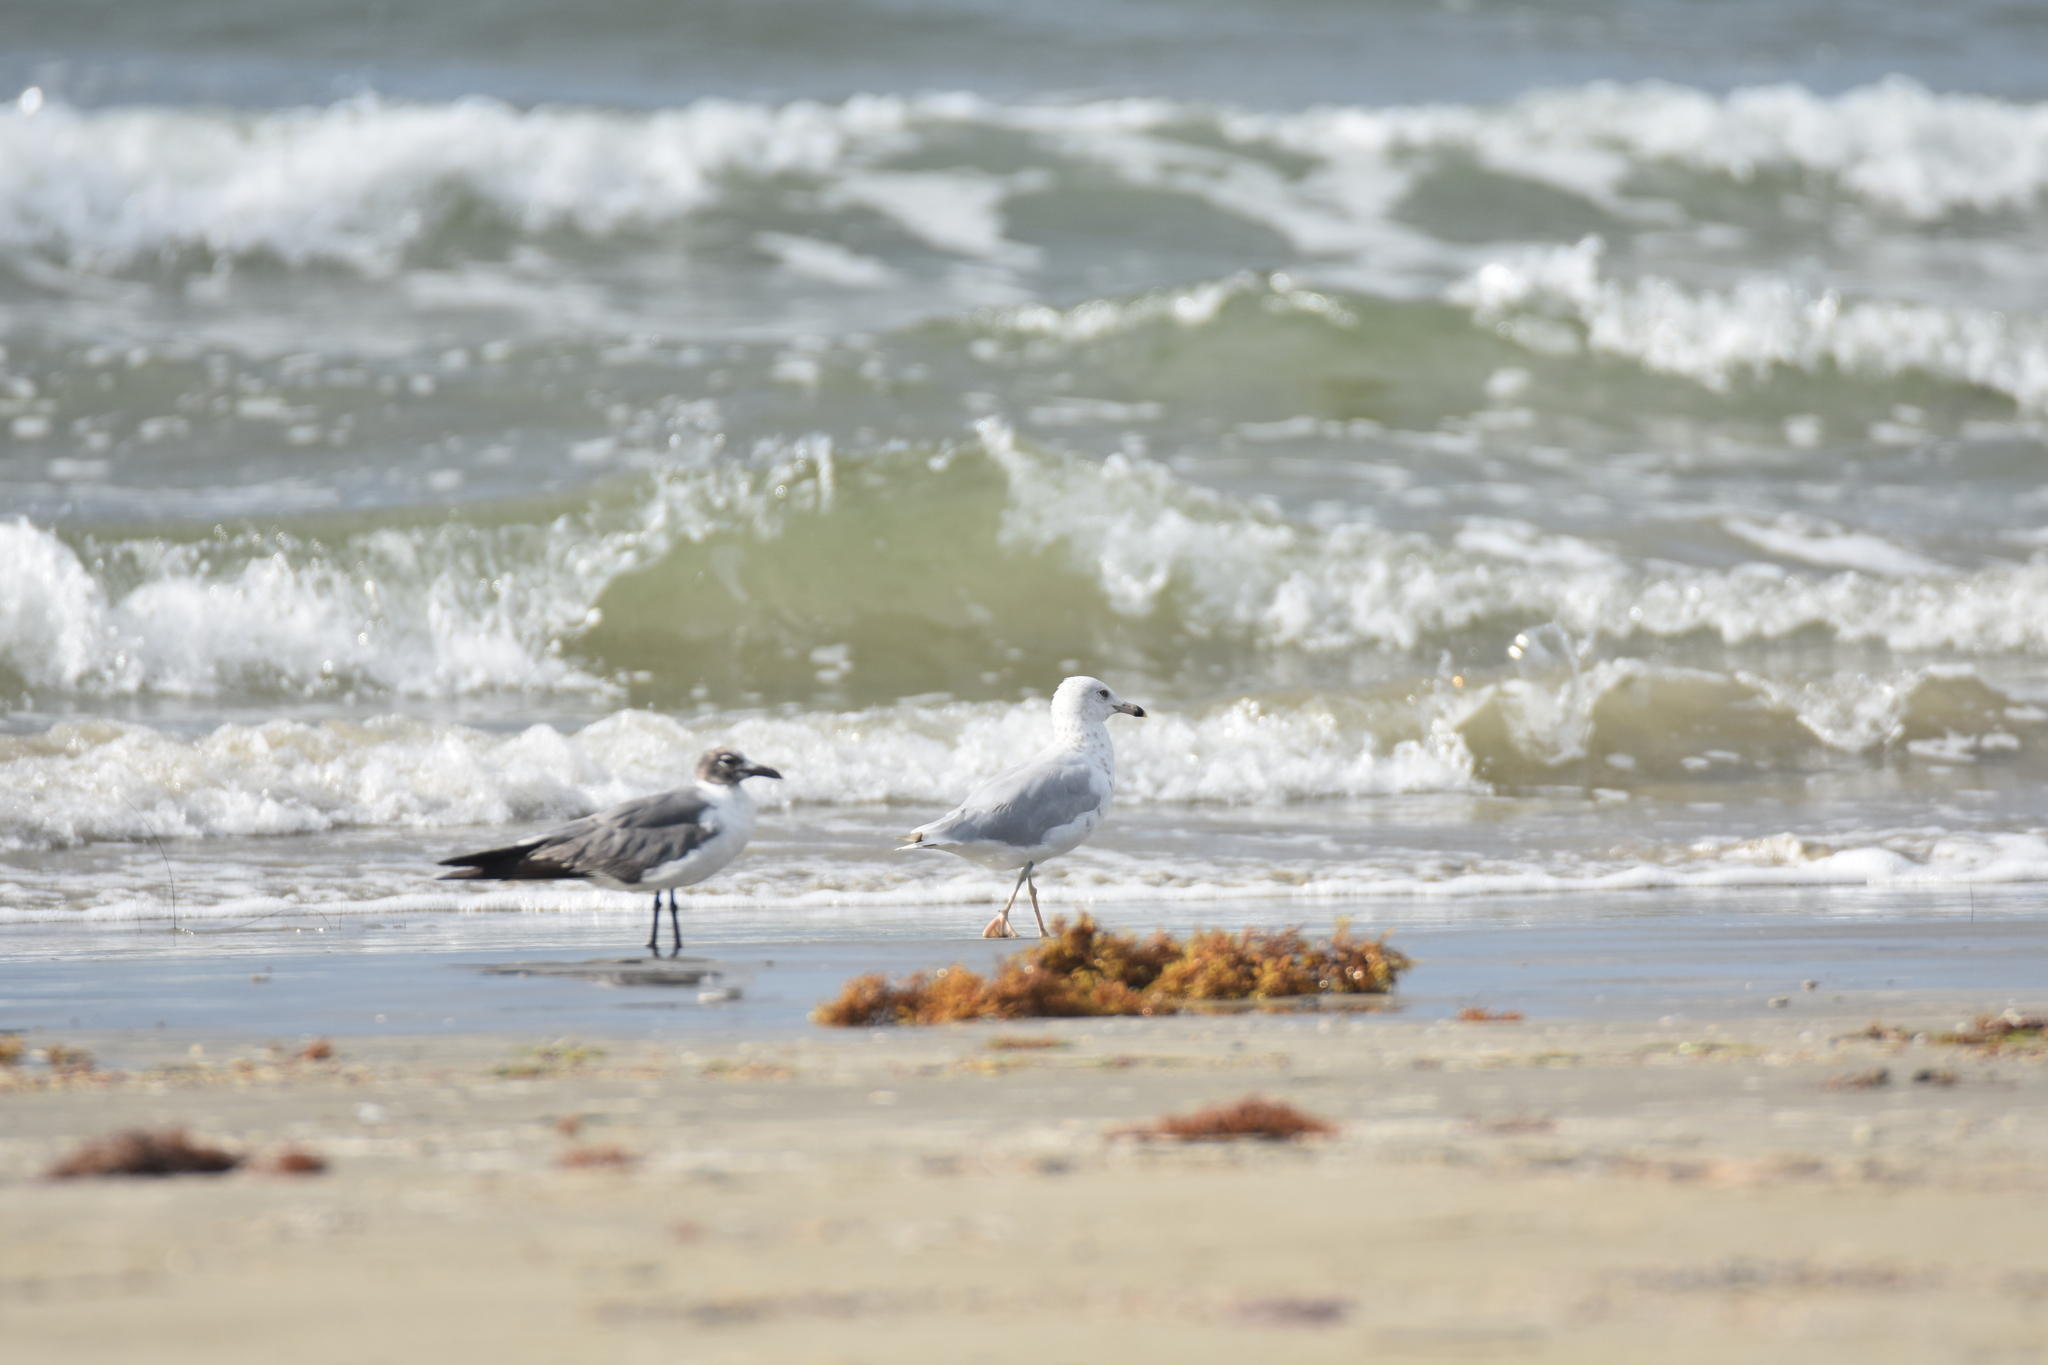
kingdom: Animalia
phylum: Chordata
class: Aves
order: Charadriiformes
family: Laridae
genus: Leucophaeus
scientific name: Leucophaeus atricilla
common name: Laughing gull
